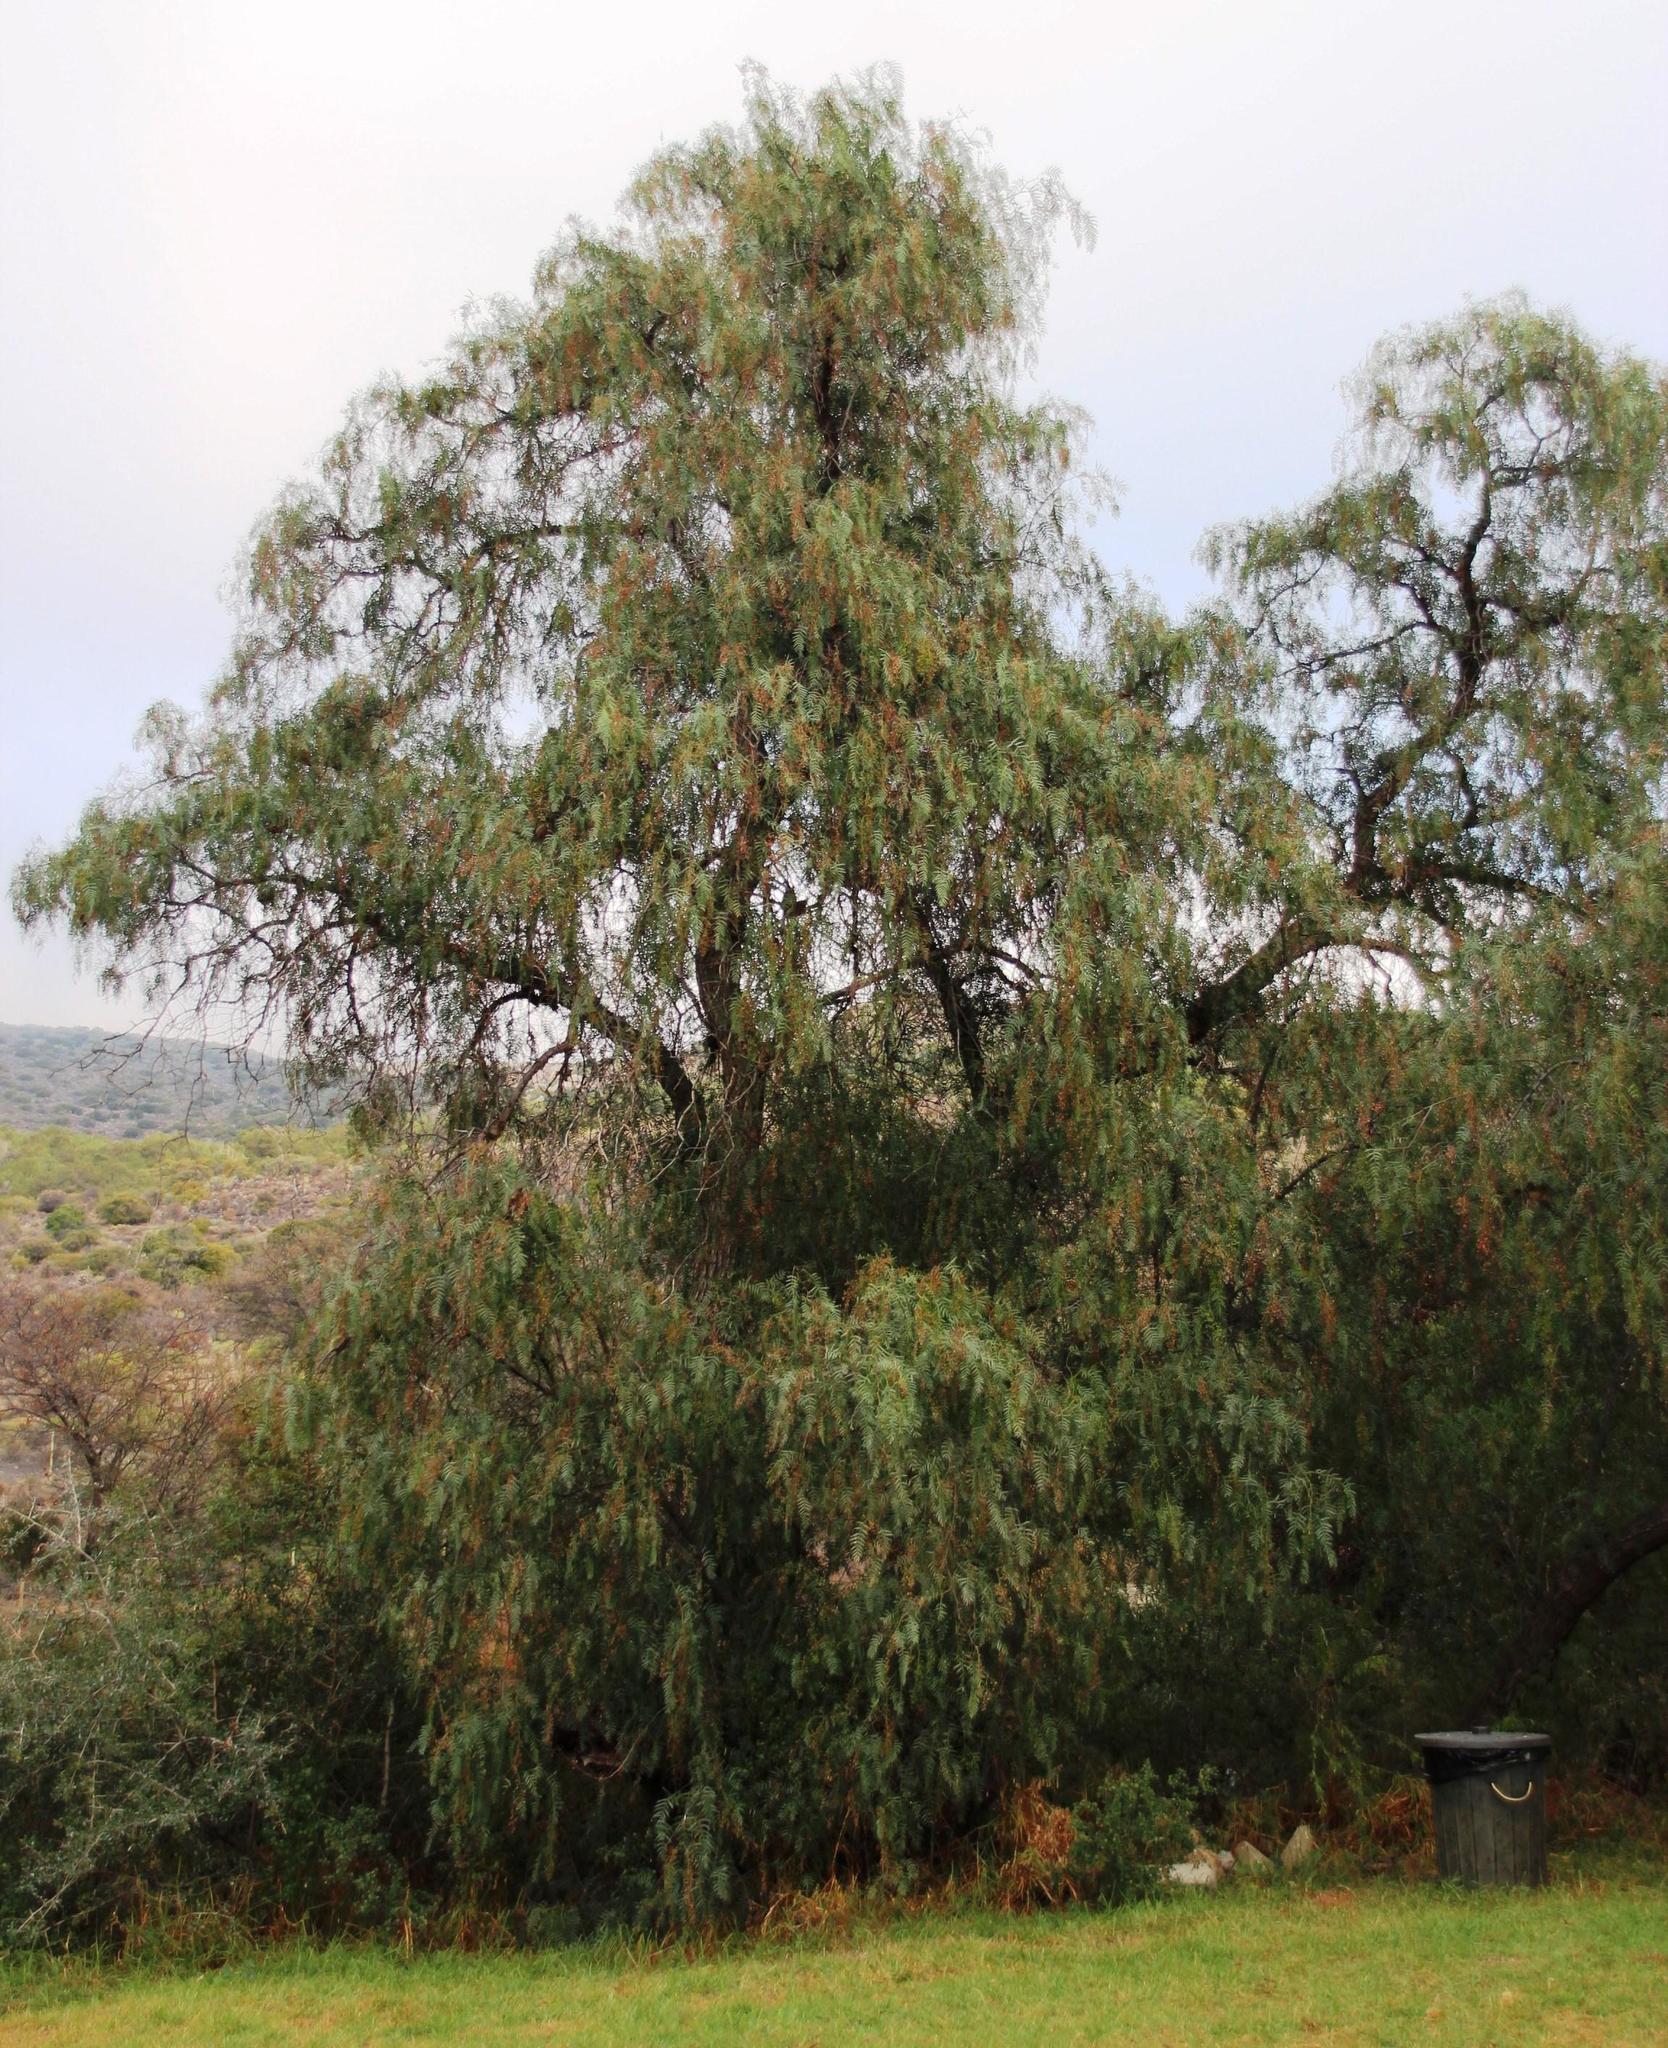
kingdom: Plantae
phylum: Tracheophyta
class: Magnoliopsida
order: Sapindales
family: Anacardiaceae
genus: Schinus
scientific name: Schinus molle
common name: Peruvian peppertree
